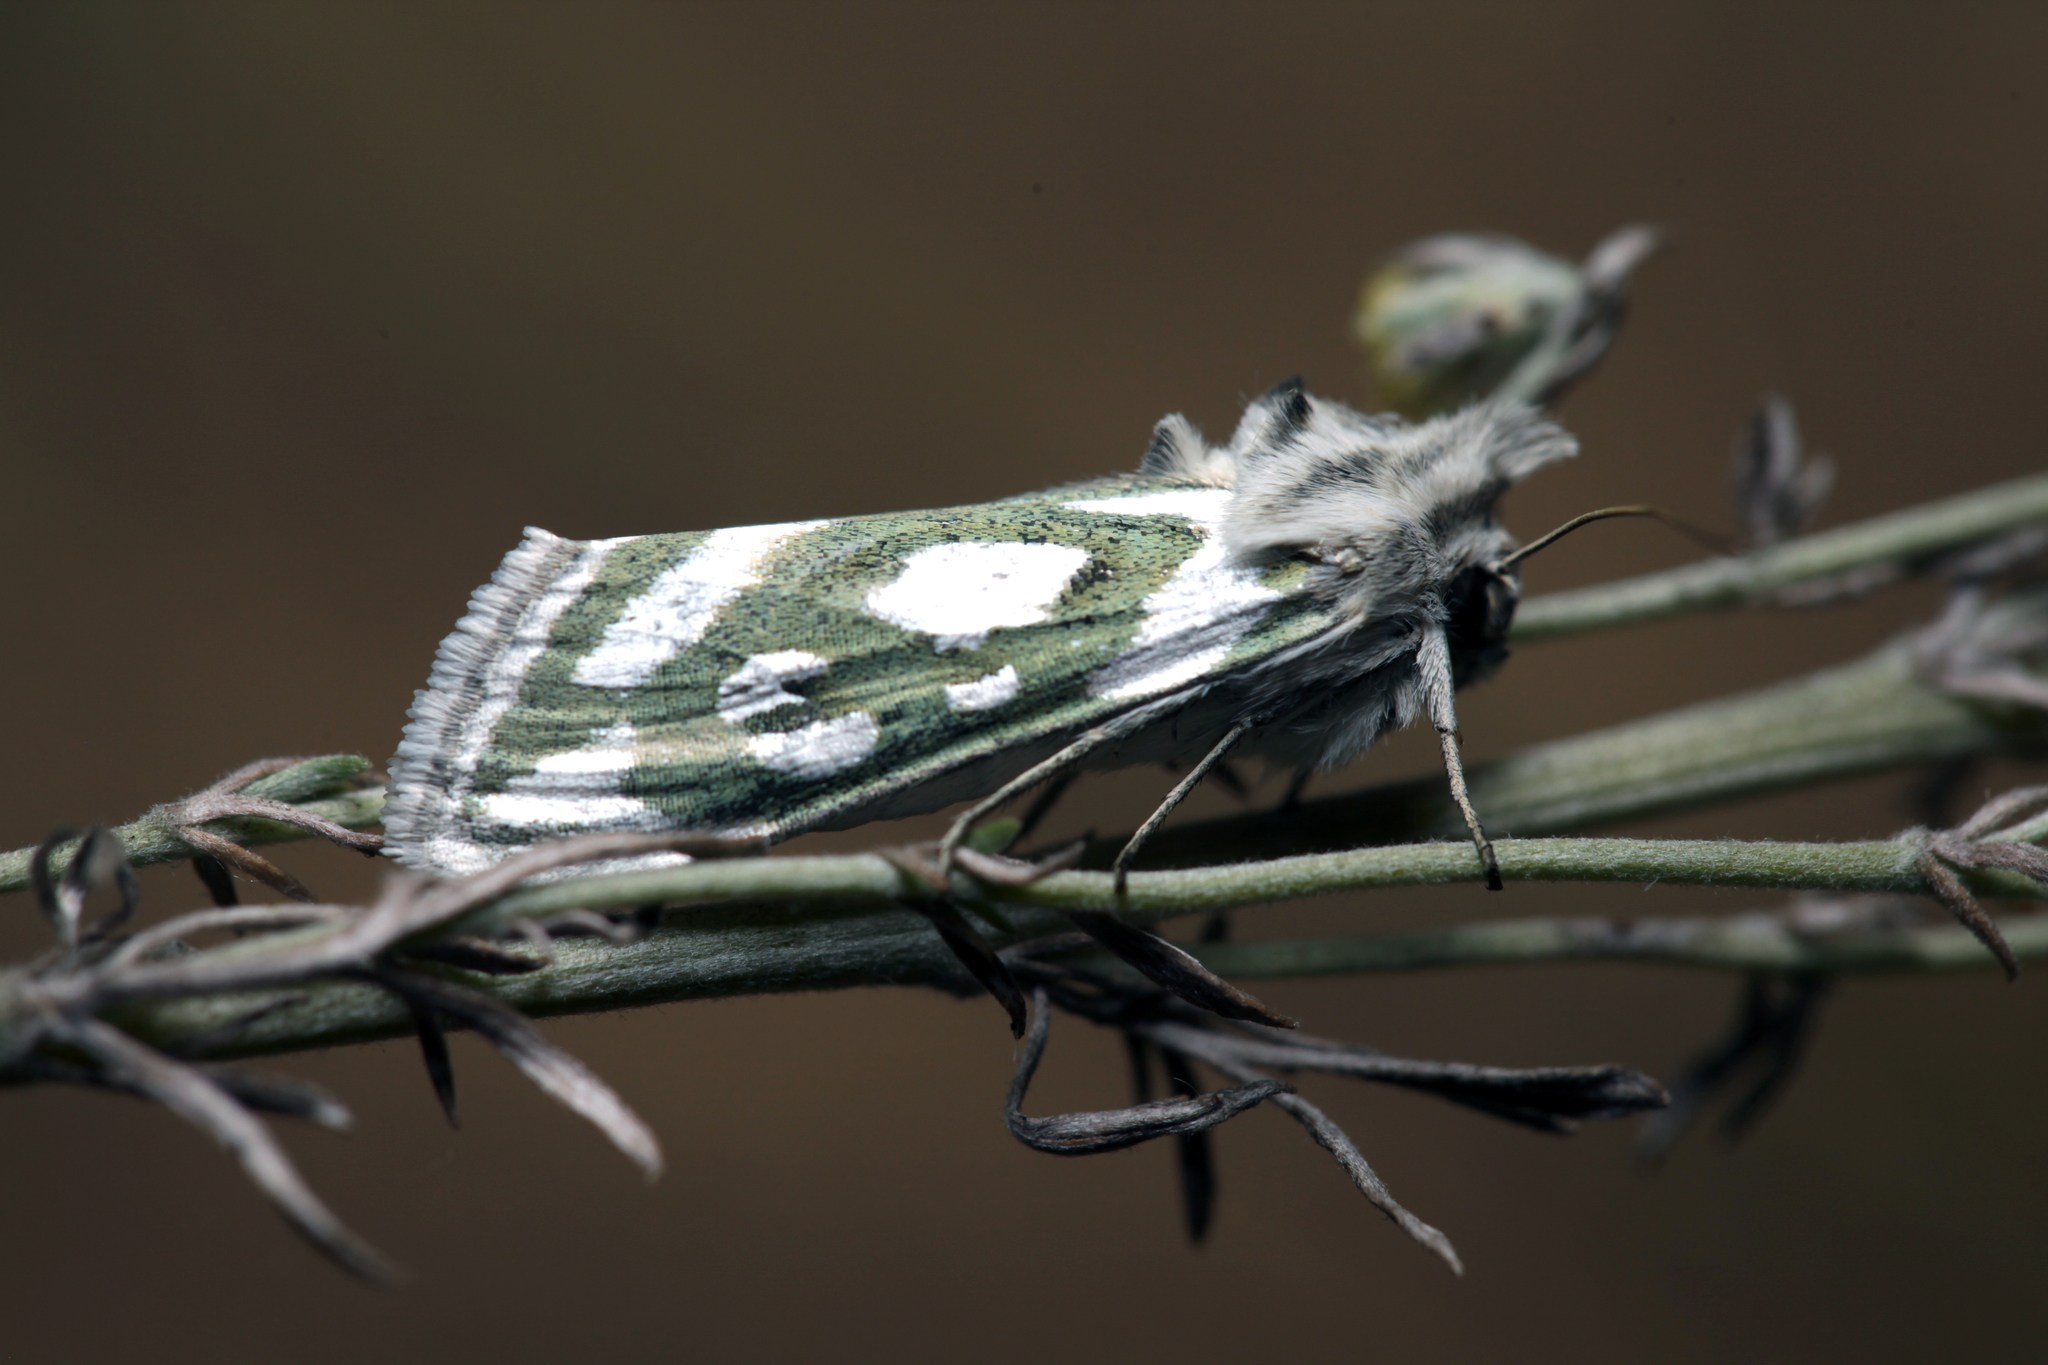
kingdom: Animalia
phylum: Arthropoda
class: Insecta
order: Lepidoptera
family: Noctuidae
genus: Cucullia
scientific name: Cucullia argentea
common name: Green silver-spangled shark
